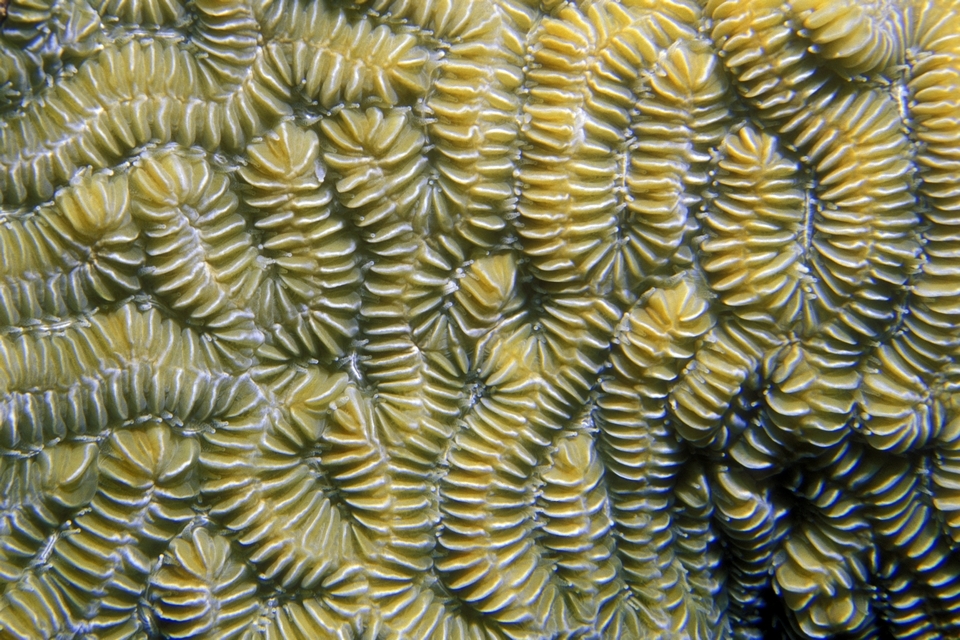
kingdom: Animalia
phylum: Cnidaria
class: Anthozoa
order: Scleractinia
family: Meandrinidae
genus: Meandrina
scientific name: Meandrina meandrites
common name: Maze coral
